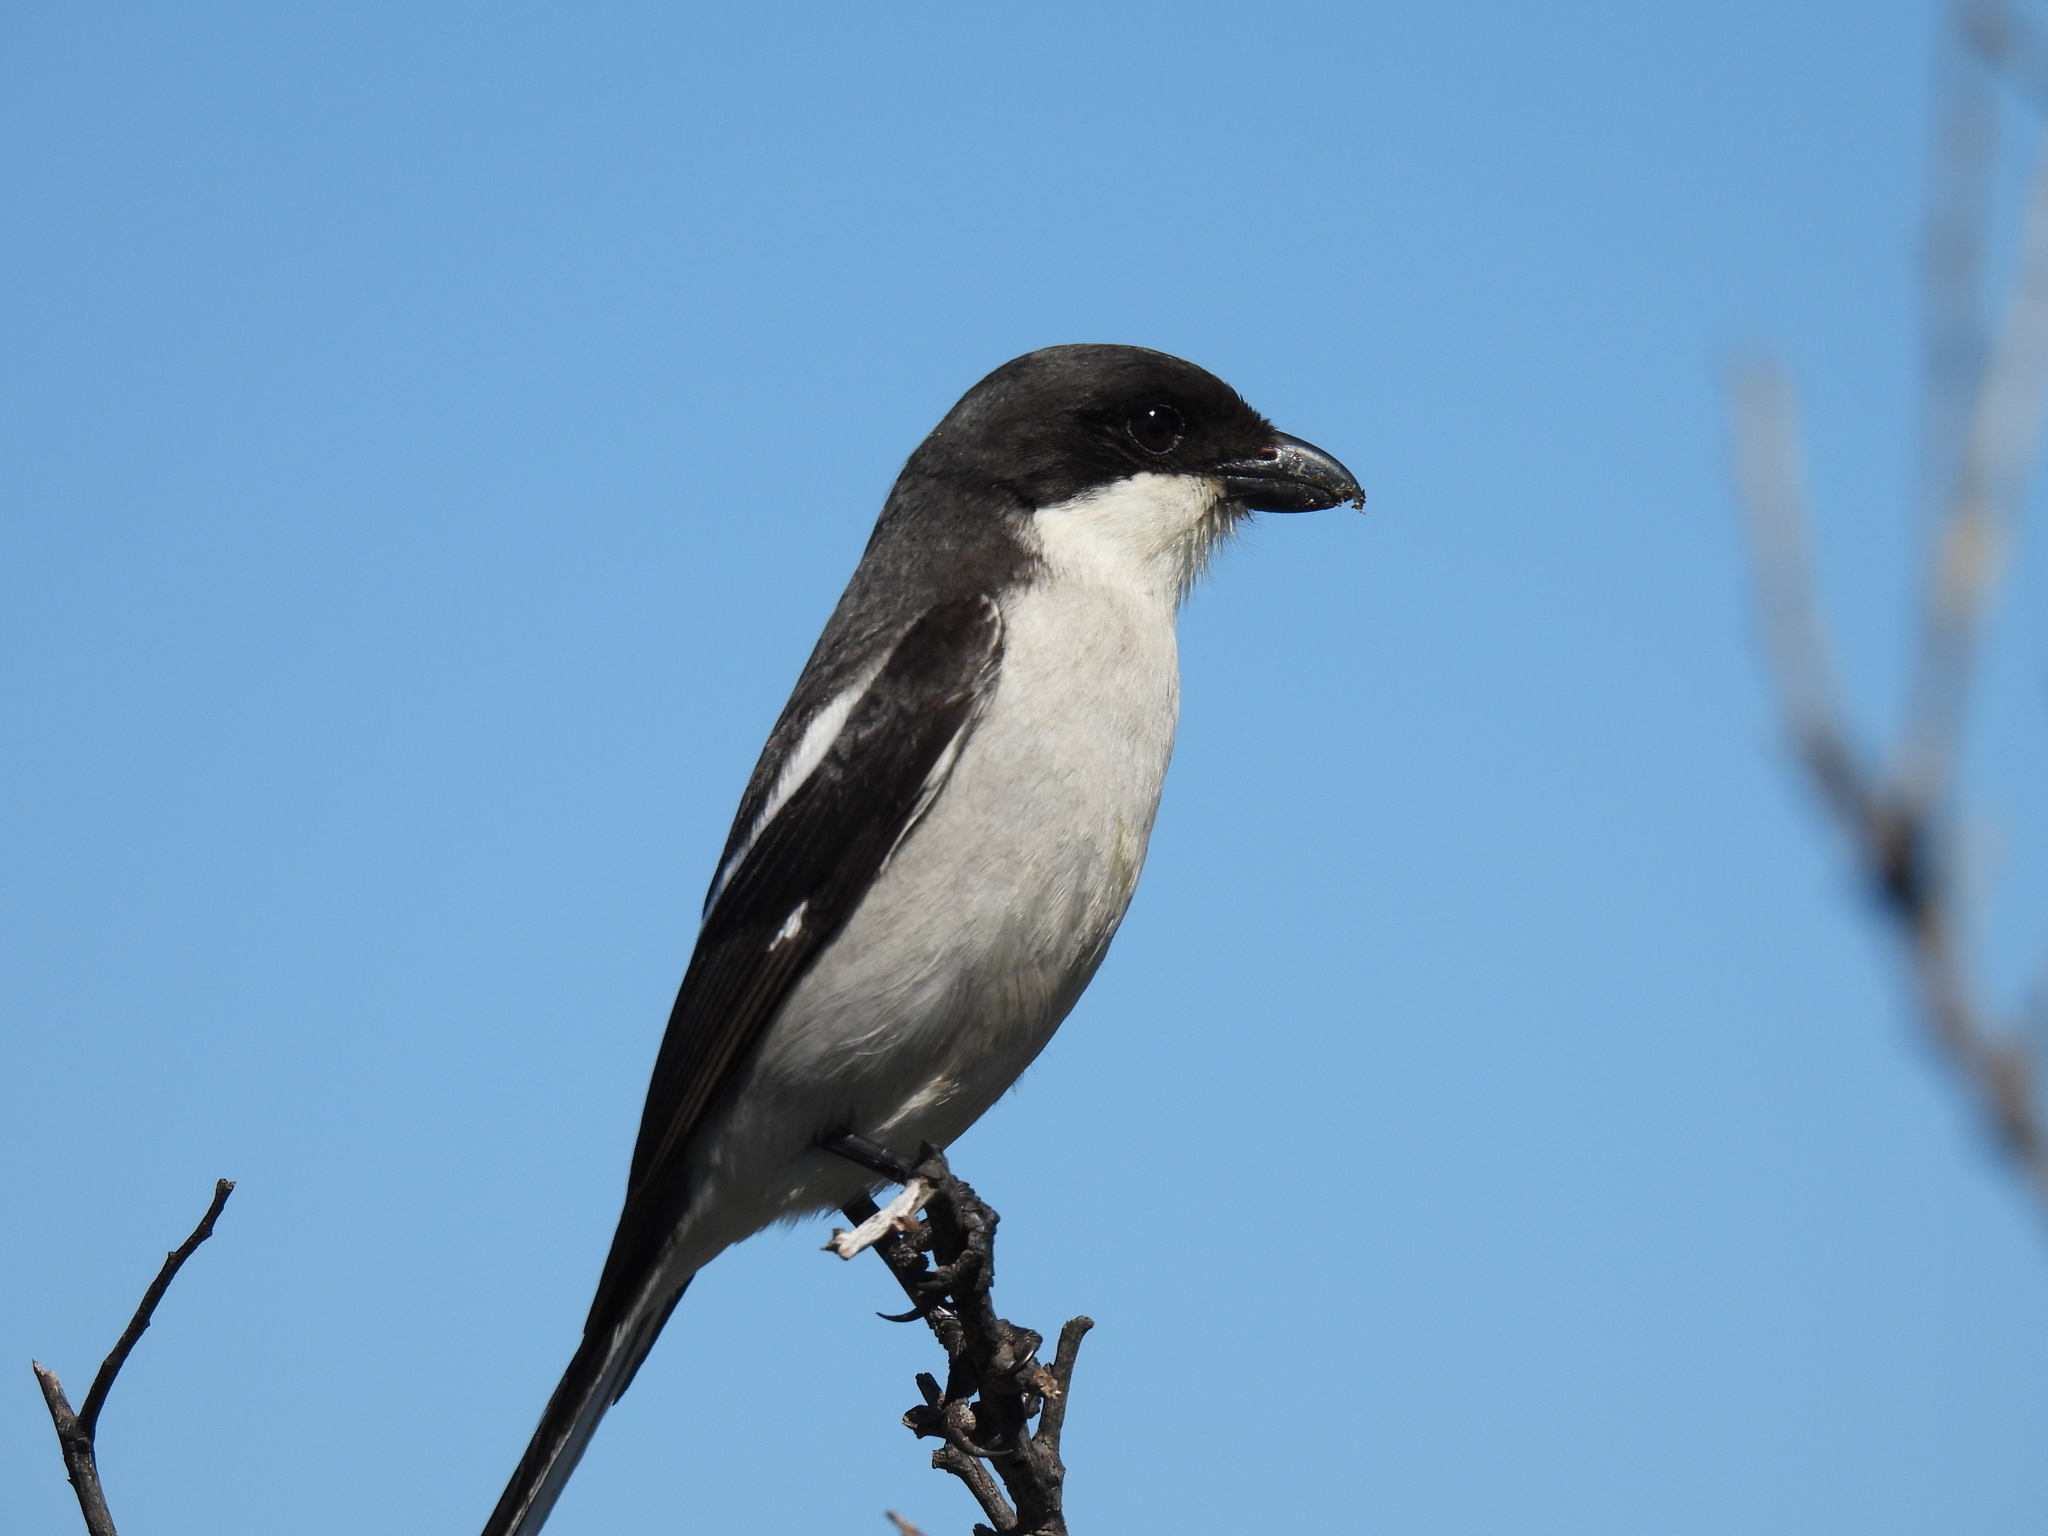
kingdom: Animalia
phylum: Chordata
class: Aves
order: Passeriformes
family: Laniidae
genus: Lanius
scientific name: Lanius collaris
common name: Southern fiscal
